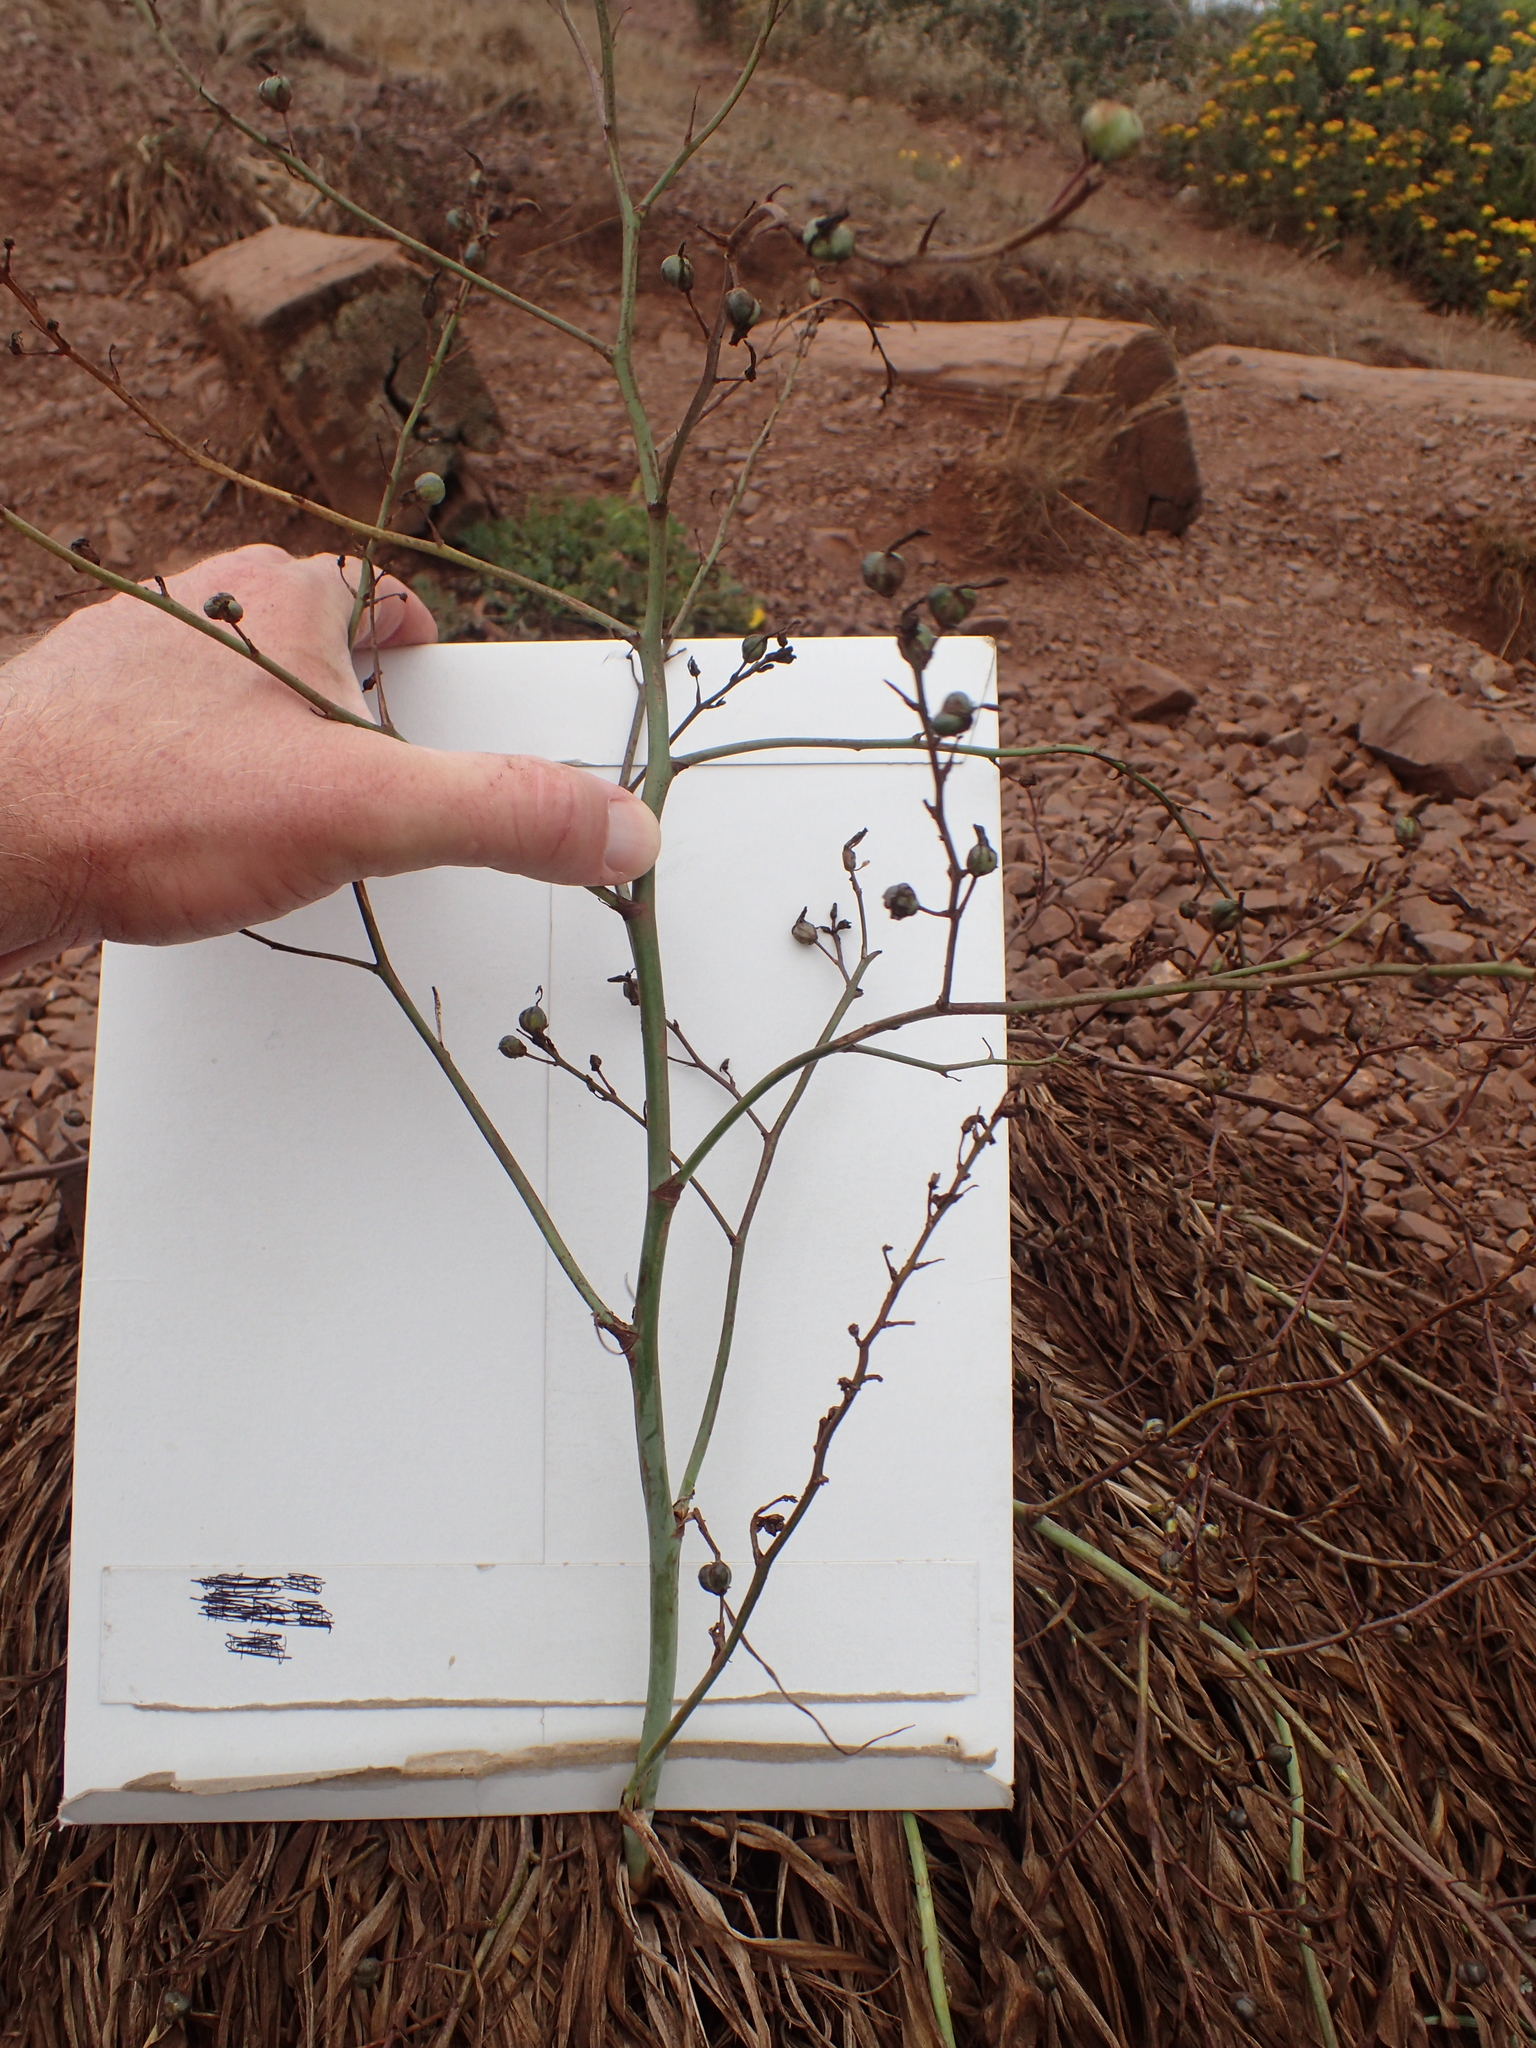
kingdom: Plantae
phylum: Tracheophyta
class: Liliopsida
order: Asparagales
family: Asparagaceae
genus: Chlorogalum
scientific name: Chlorogalum pomeridianum
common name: Amole
